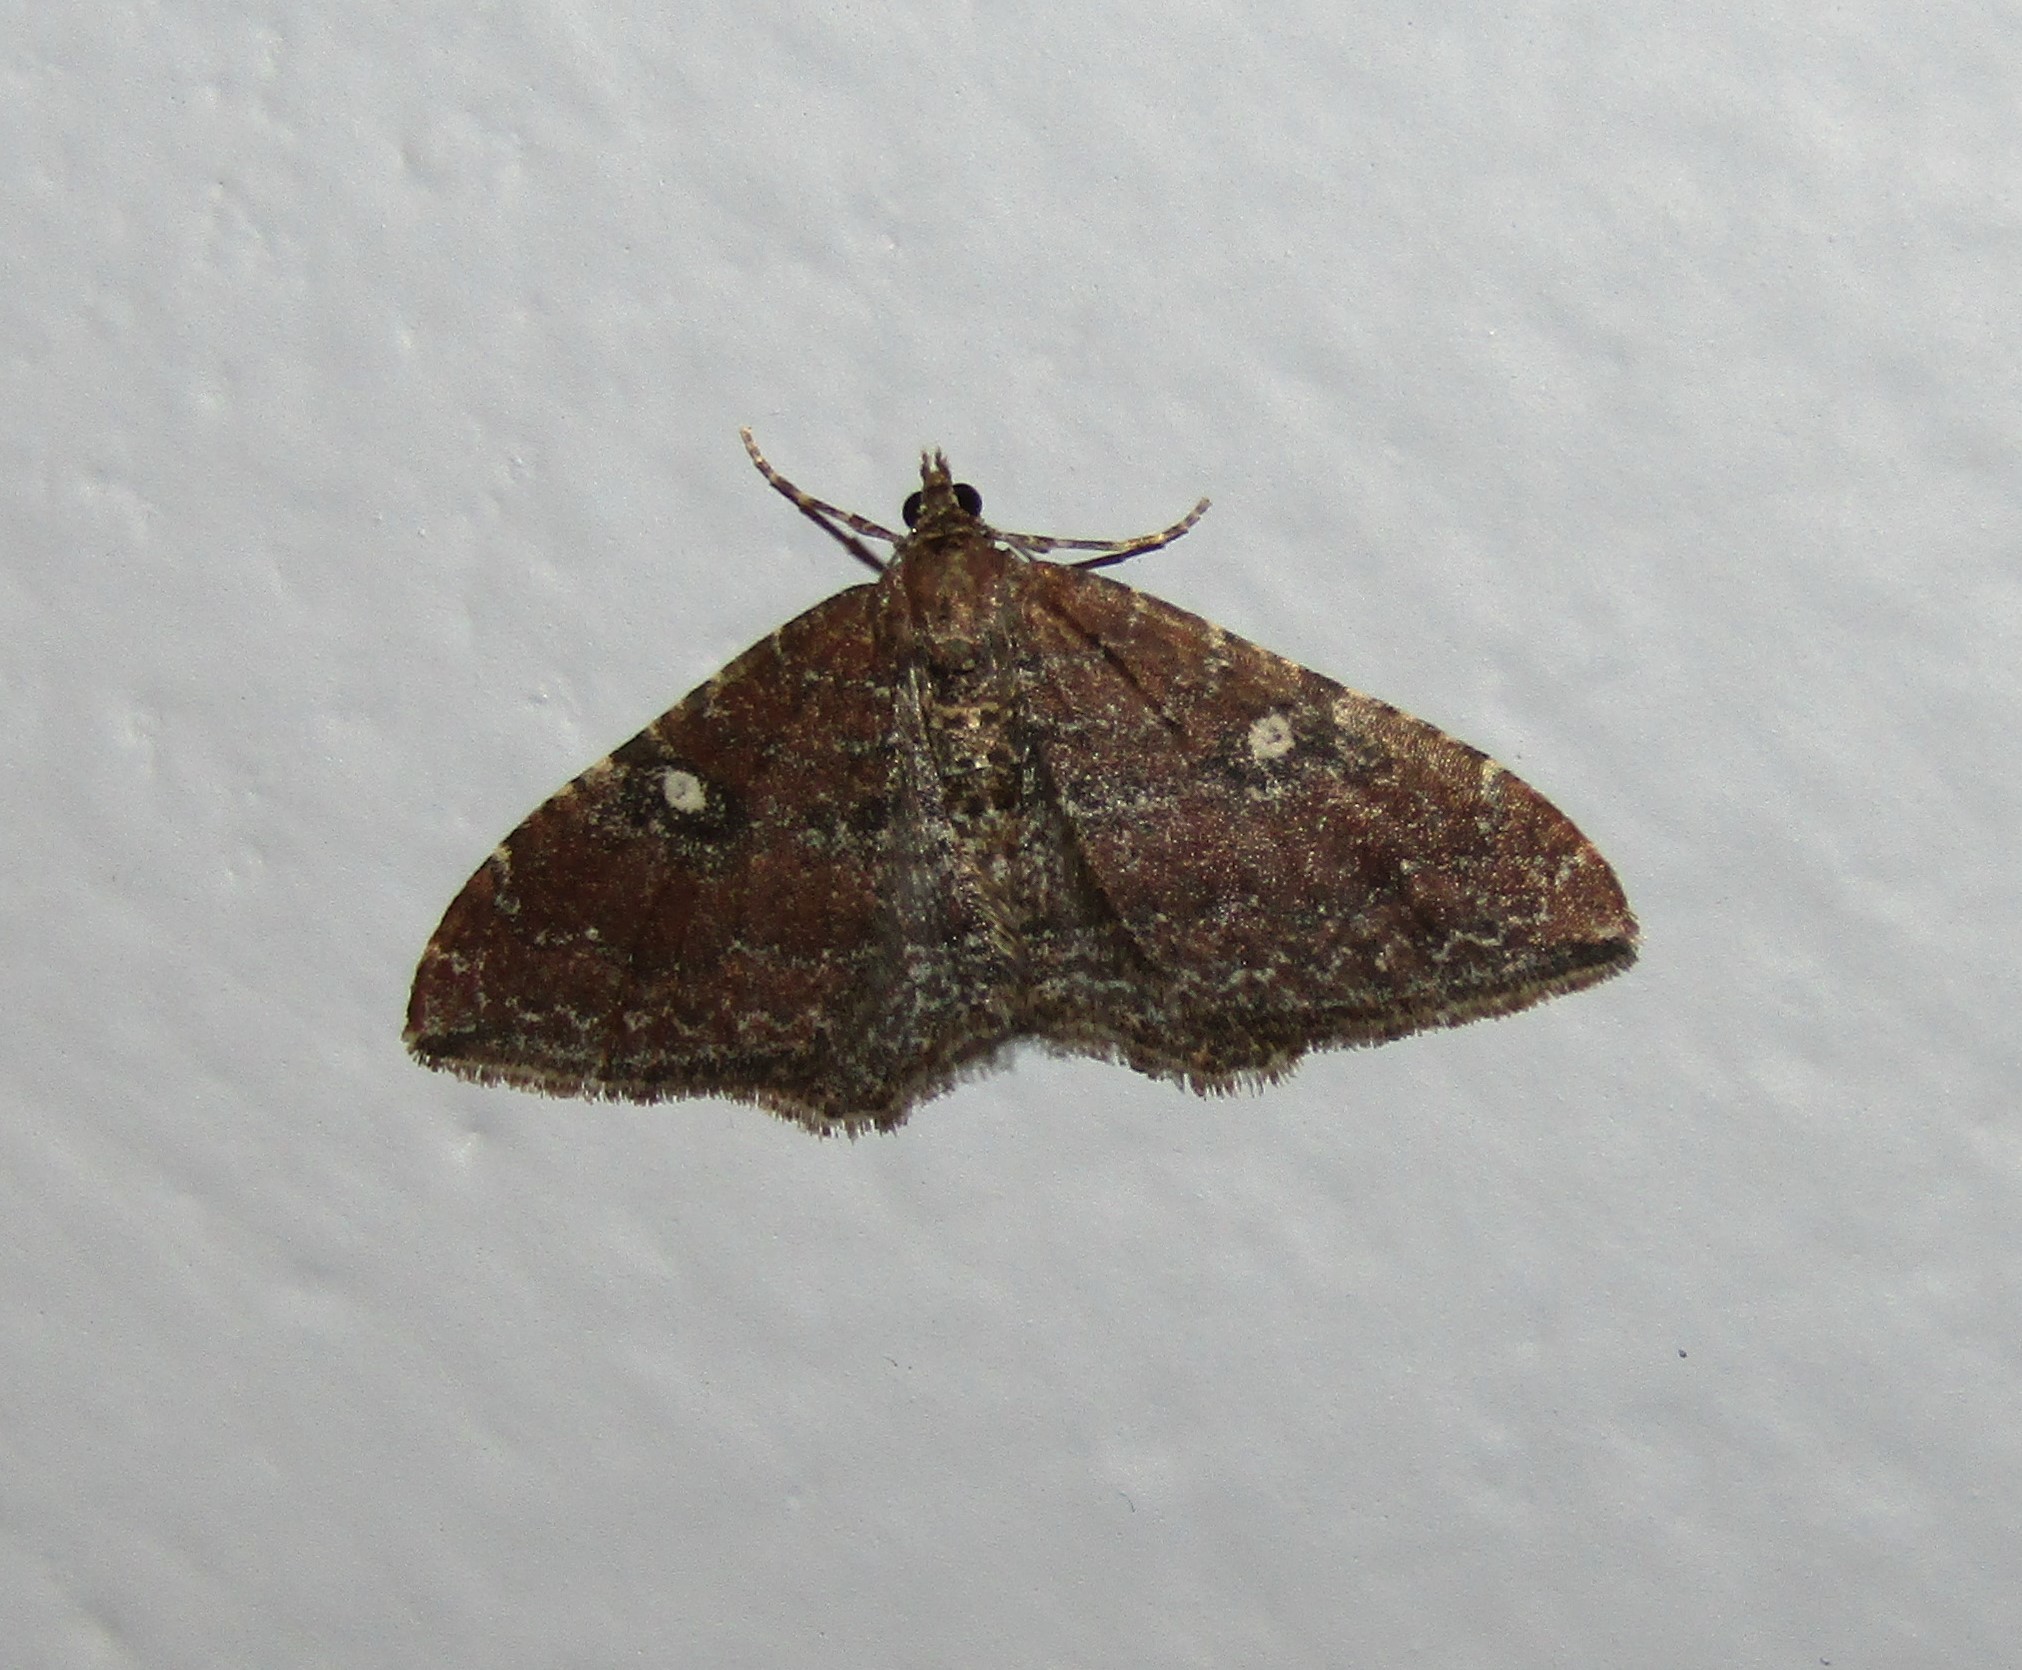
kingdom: Animalia
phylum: Arthropoda
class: Insecta
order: Lepidoptera
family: Geometridae
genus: Orthonama
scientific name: Orthonama obstipata
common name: The gem
